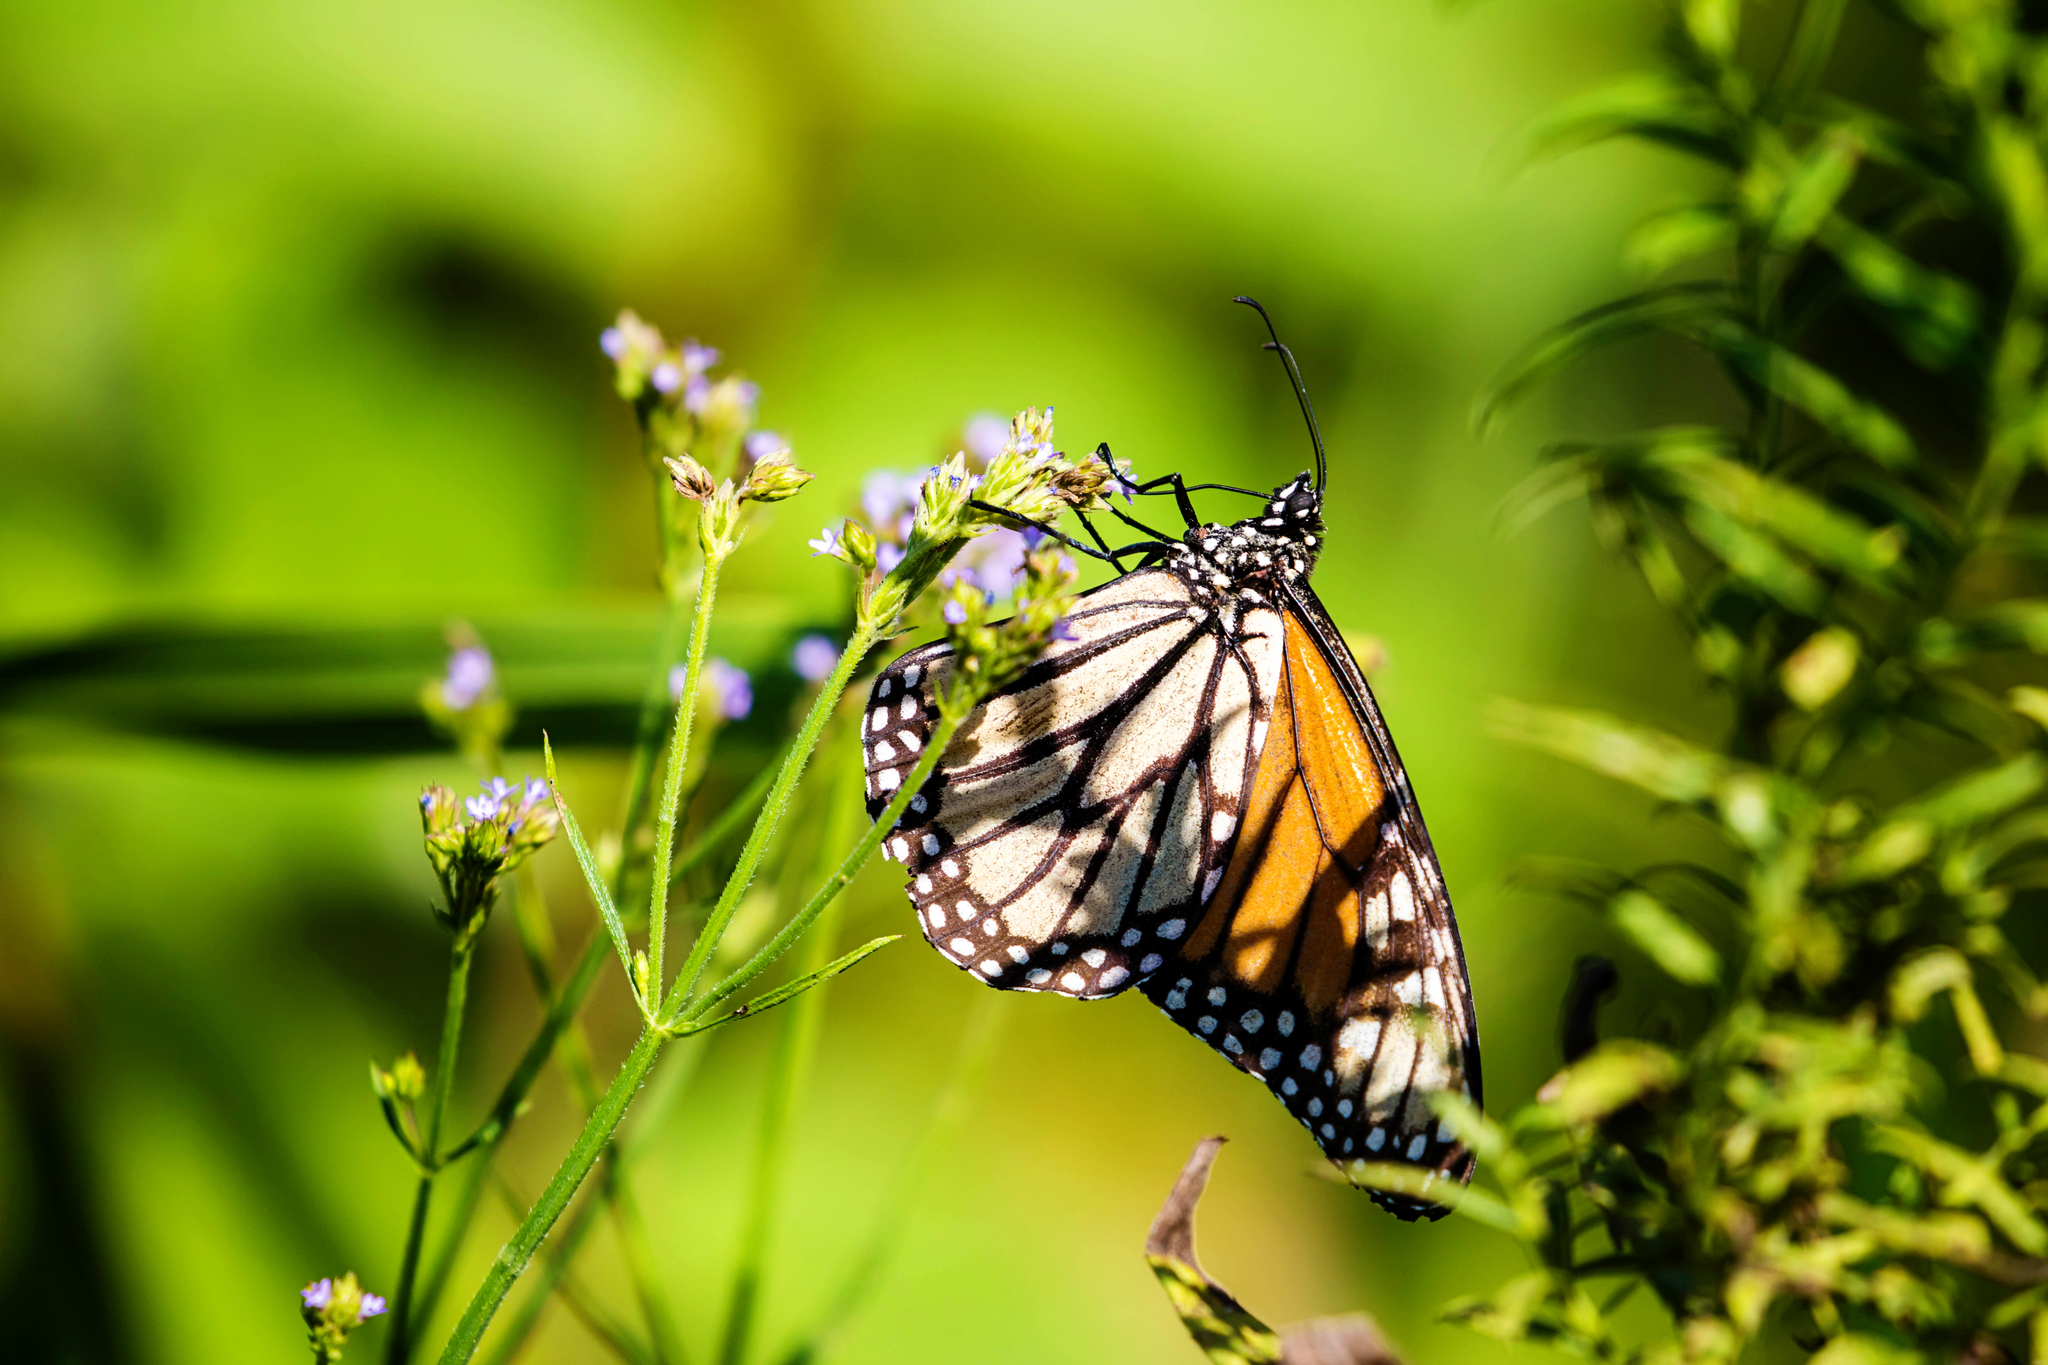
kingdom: Animalia
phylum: Arthropoda
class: Insecta
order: Lepidoptera
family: Nymphalidae
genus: Danaus
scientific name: Danaus plexippus
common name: Monarch
